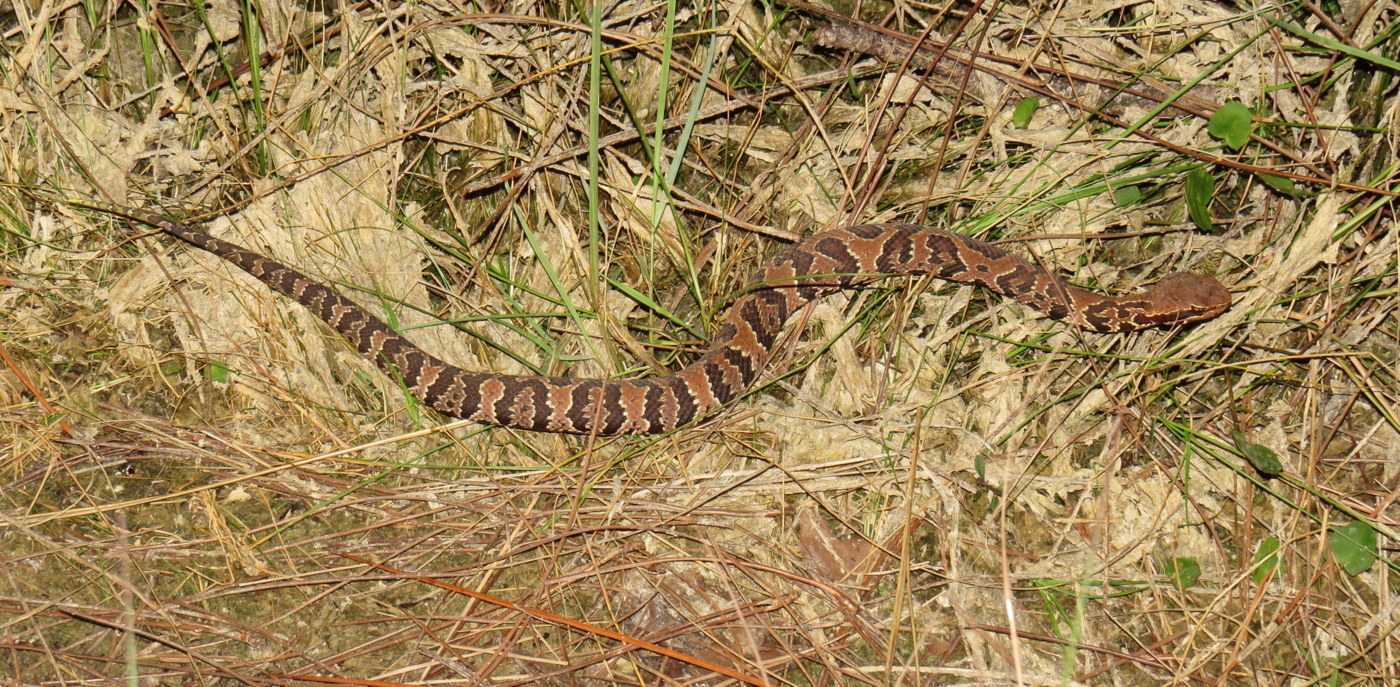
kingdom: Animalia
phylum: Chordata
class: Squamata
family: Viperidae
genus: Agkistrodon
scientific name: Agkistrodon conanti
